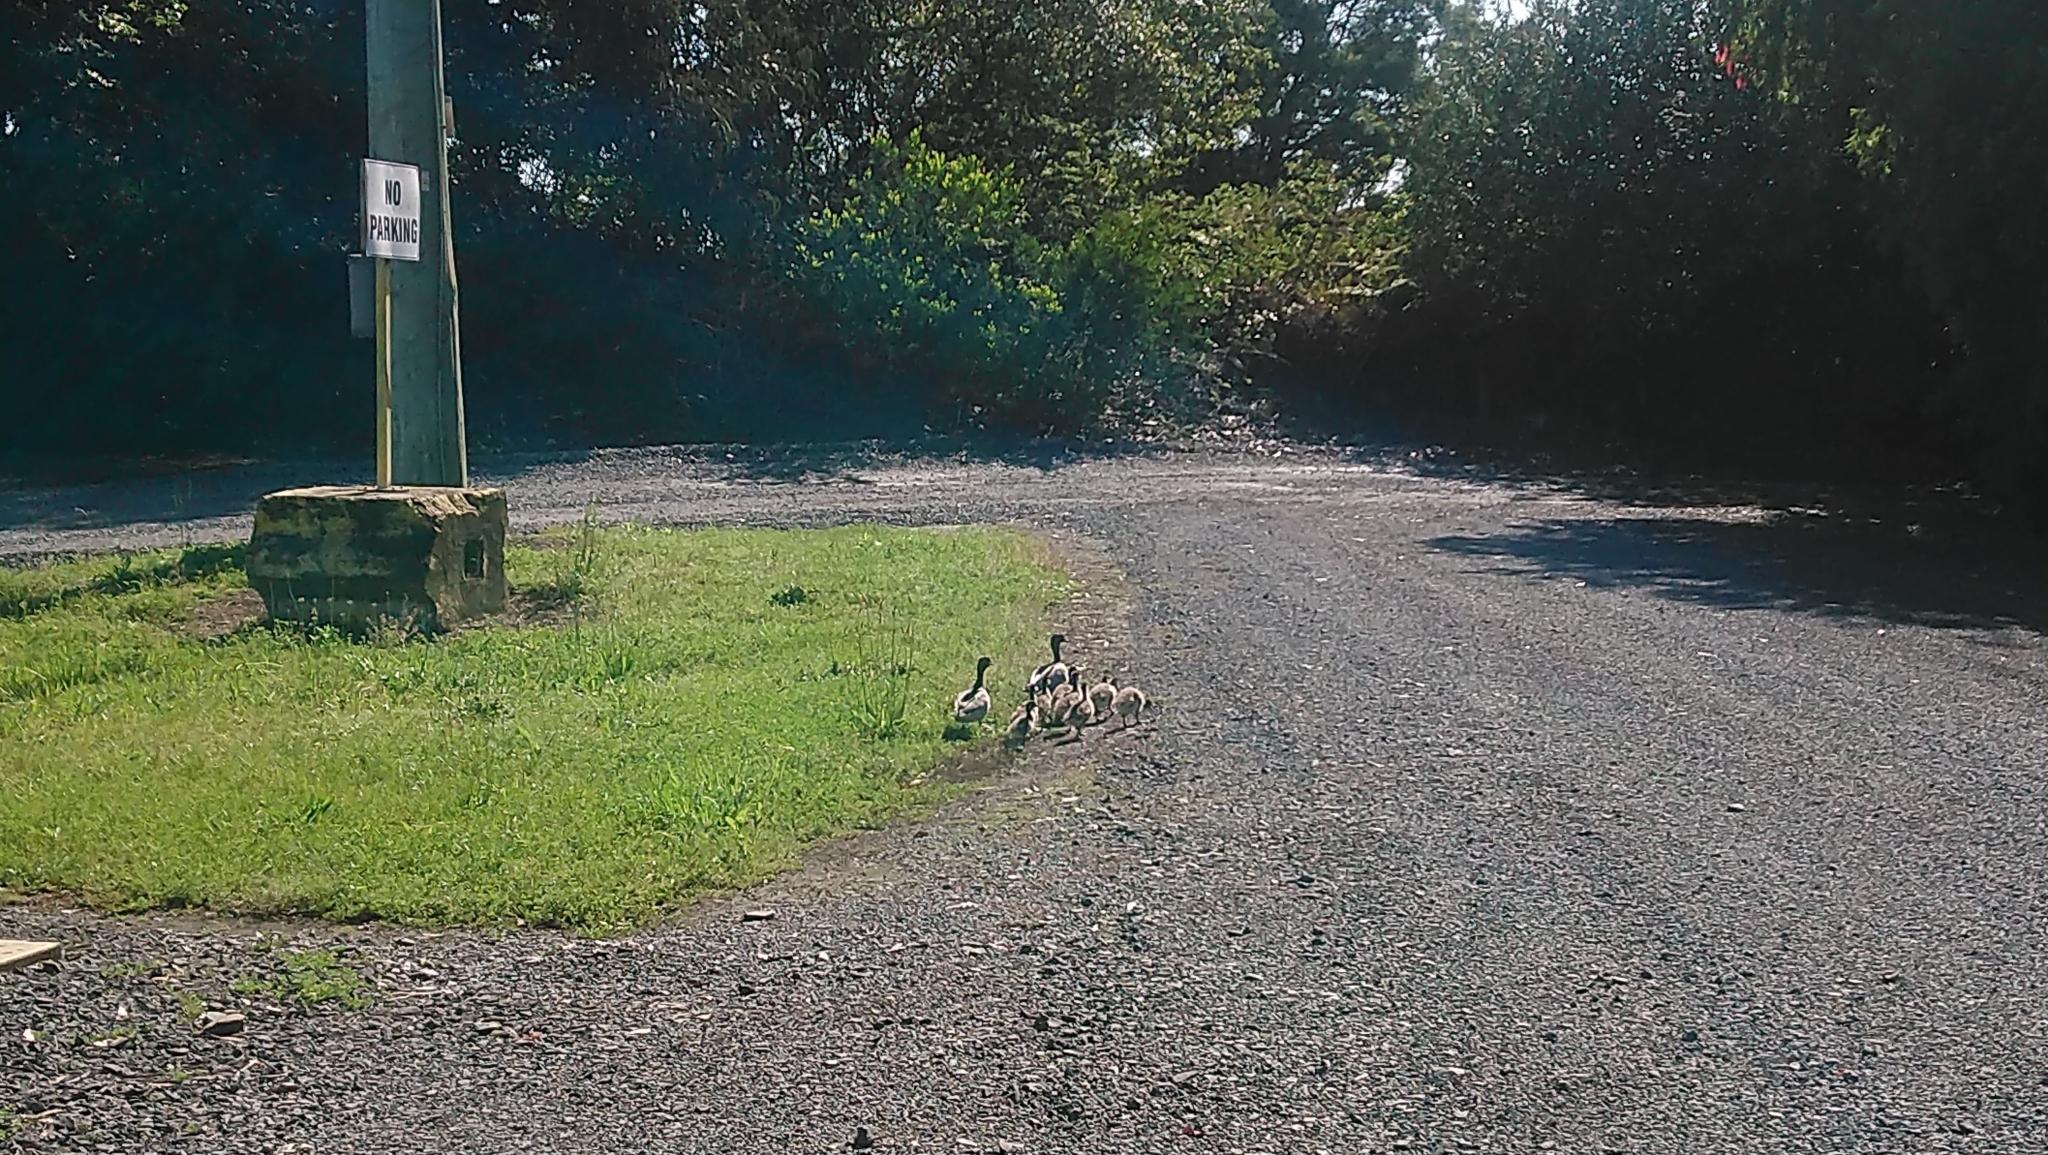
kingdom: Animalia
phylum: Chordata
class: Aves
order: Anseriformes
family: Anatidae
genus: Chenonetta
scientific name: Chenonetta jubata
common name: Maned duck
